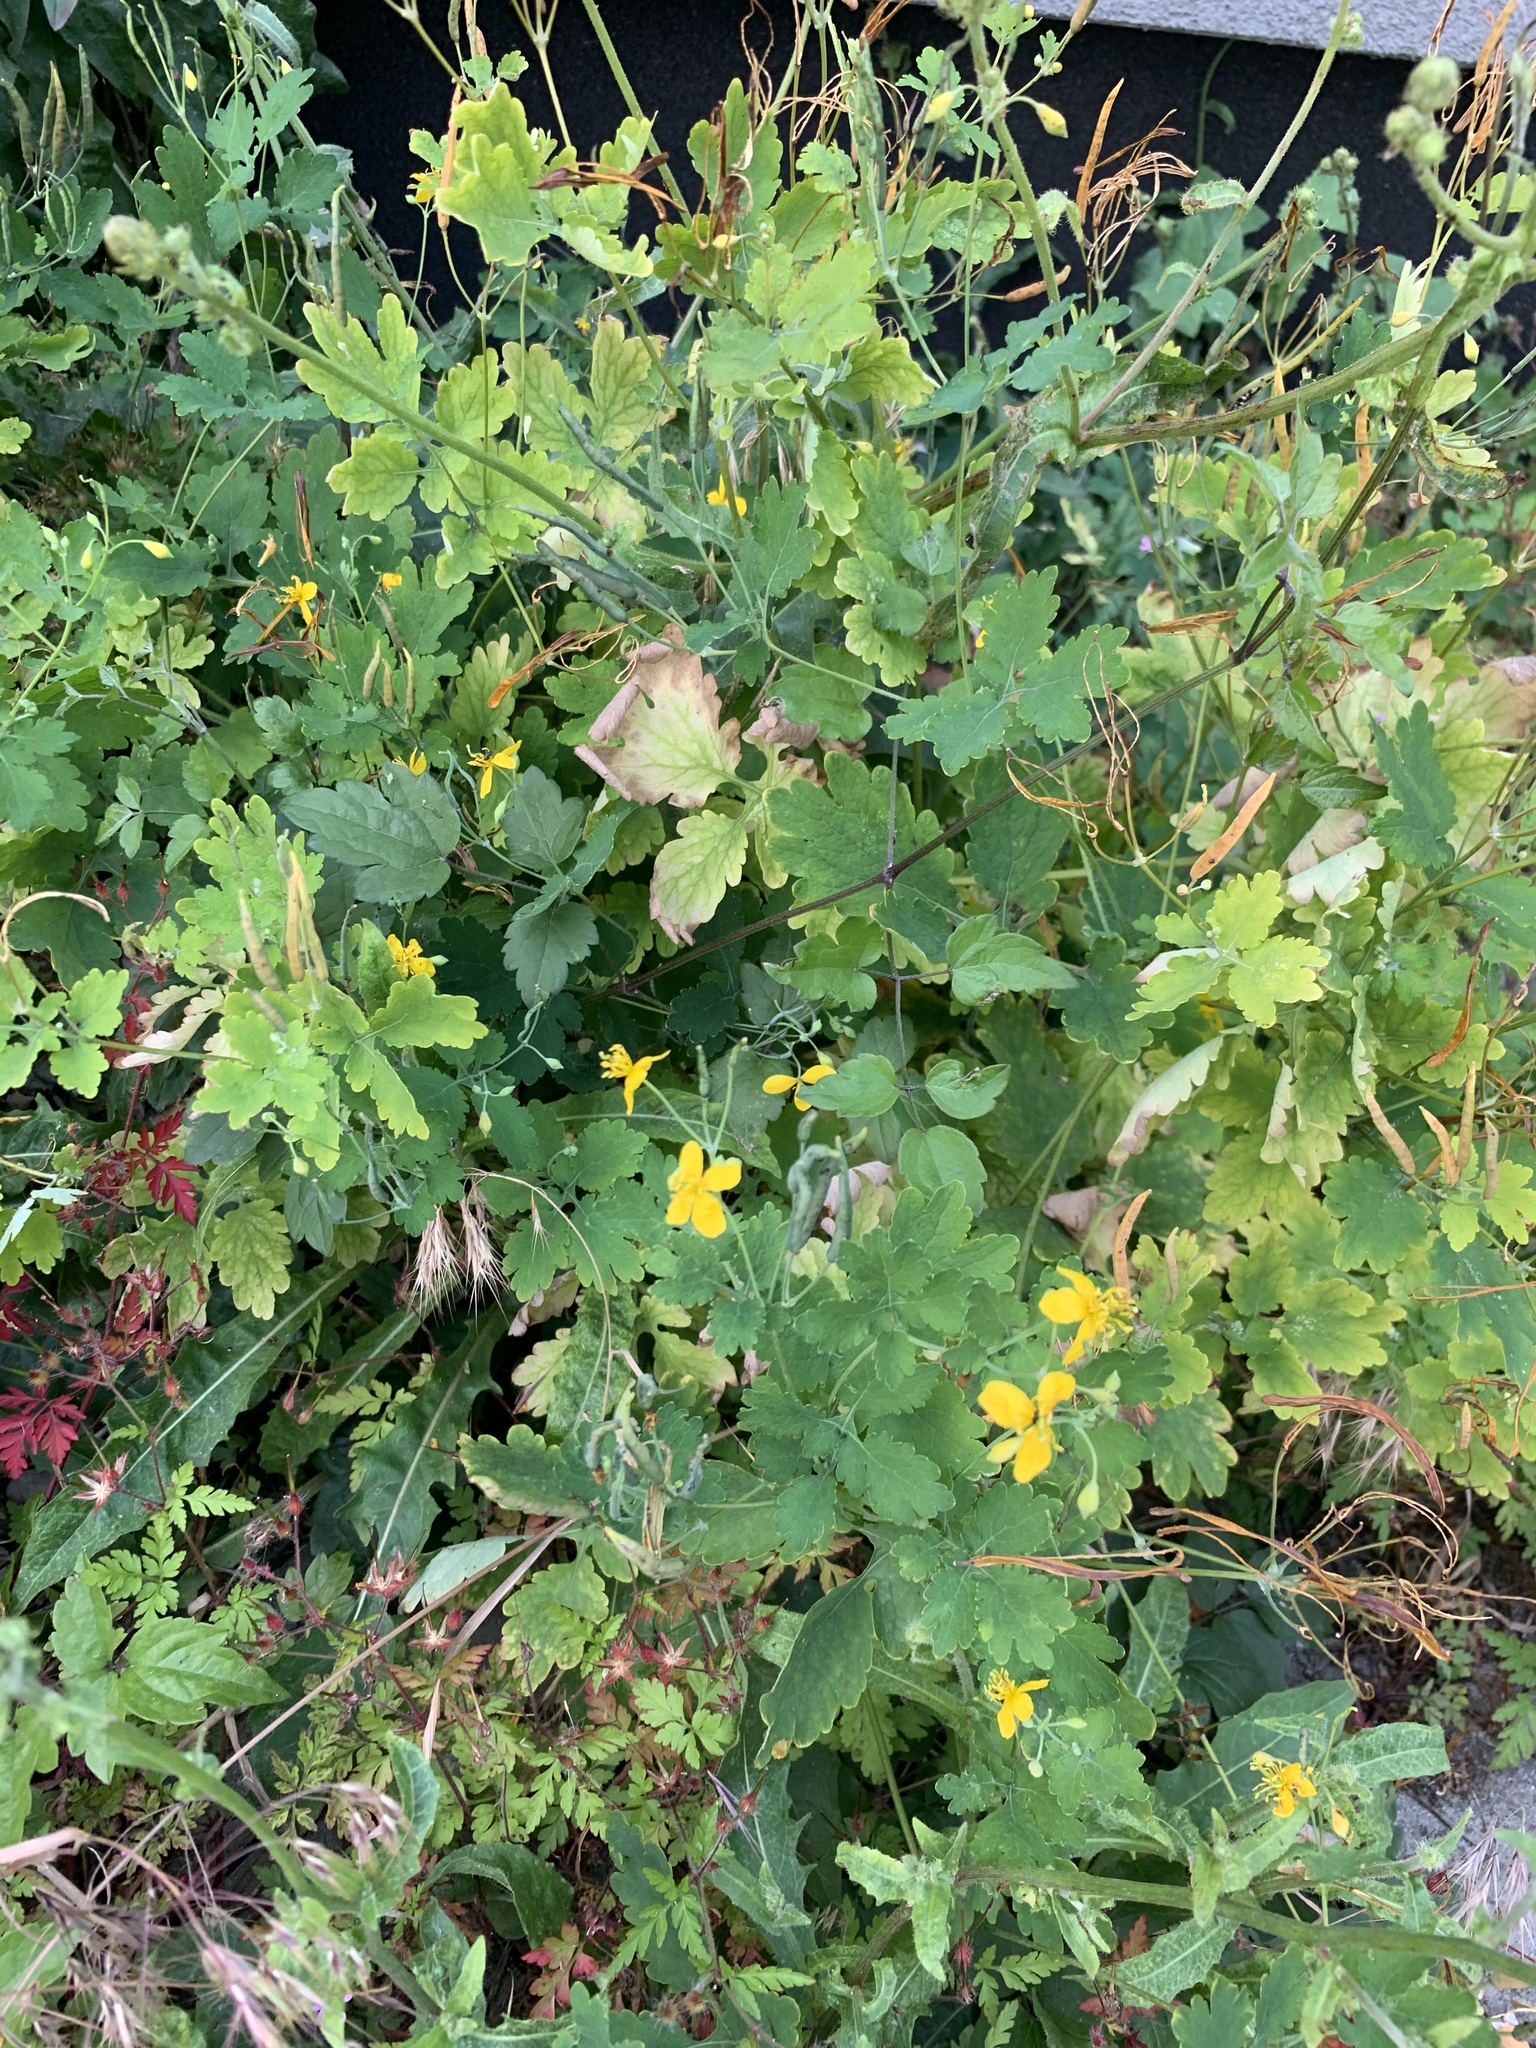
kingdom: Plantae
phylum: Tracheophyta
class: Magnoliopsida
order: Ranunculales
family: Papaveraceae
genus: Chelidonium
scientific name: Chelidonium majus
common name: Greater celandine
